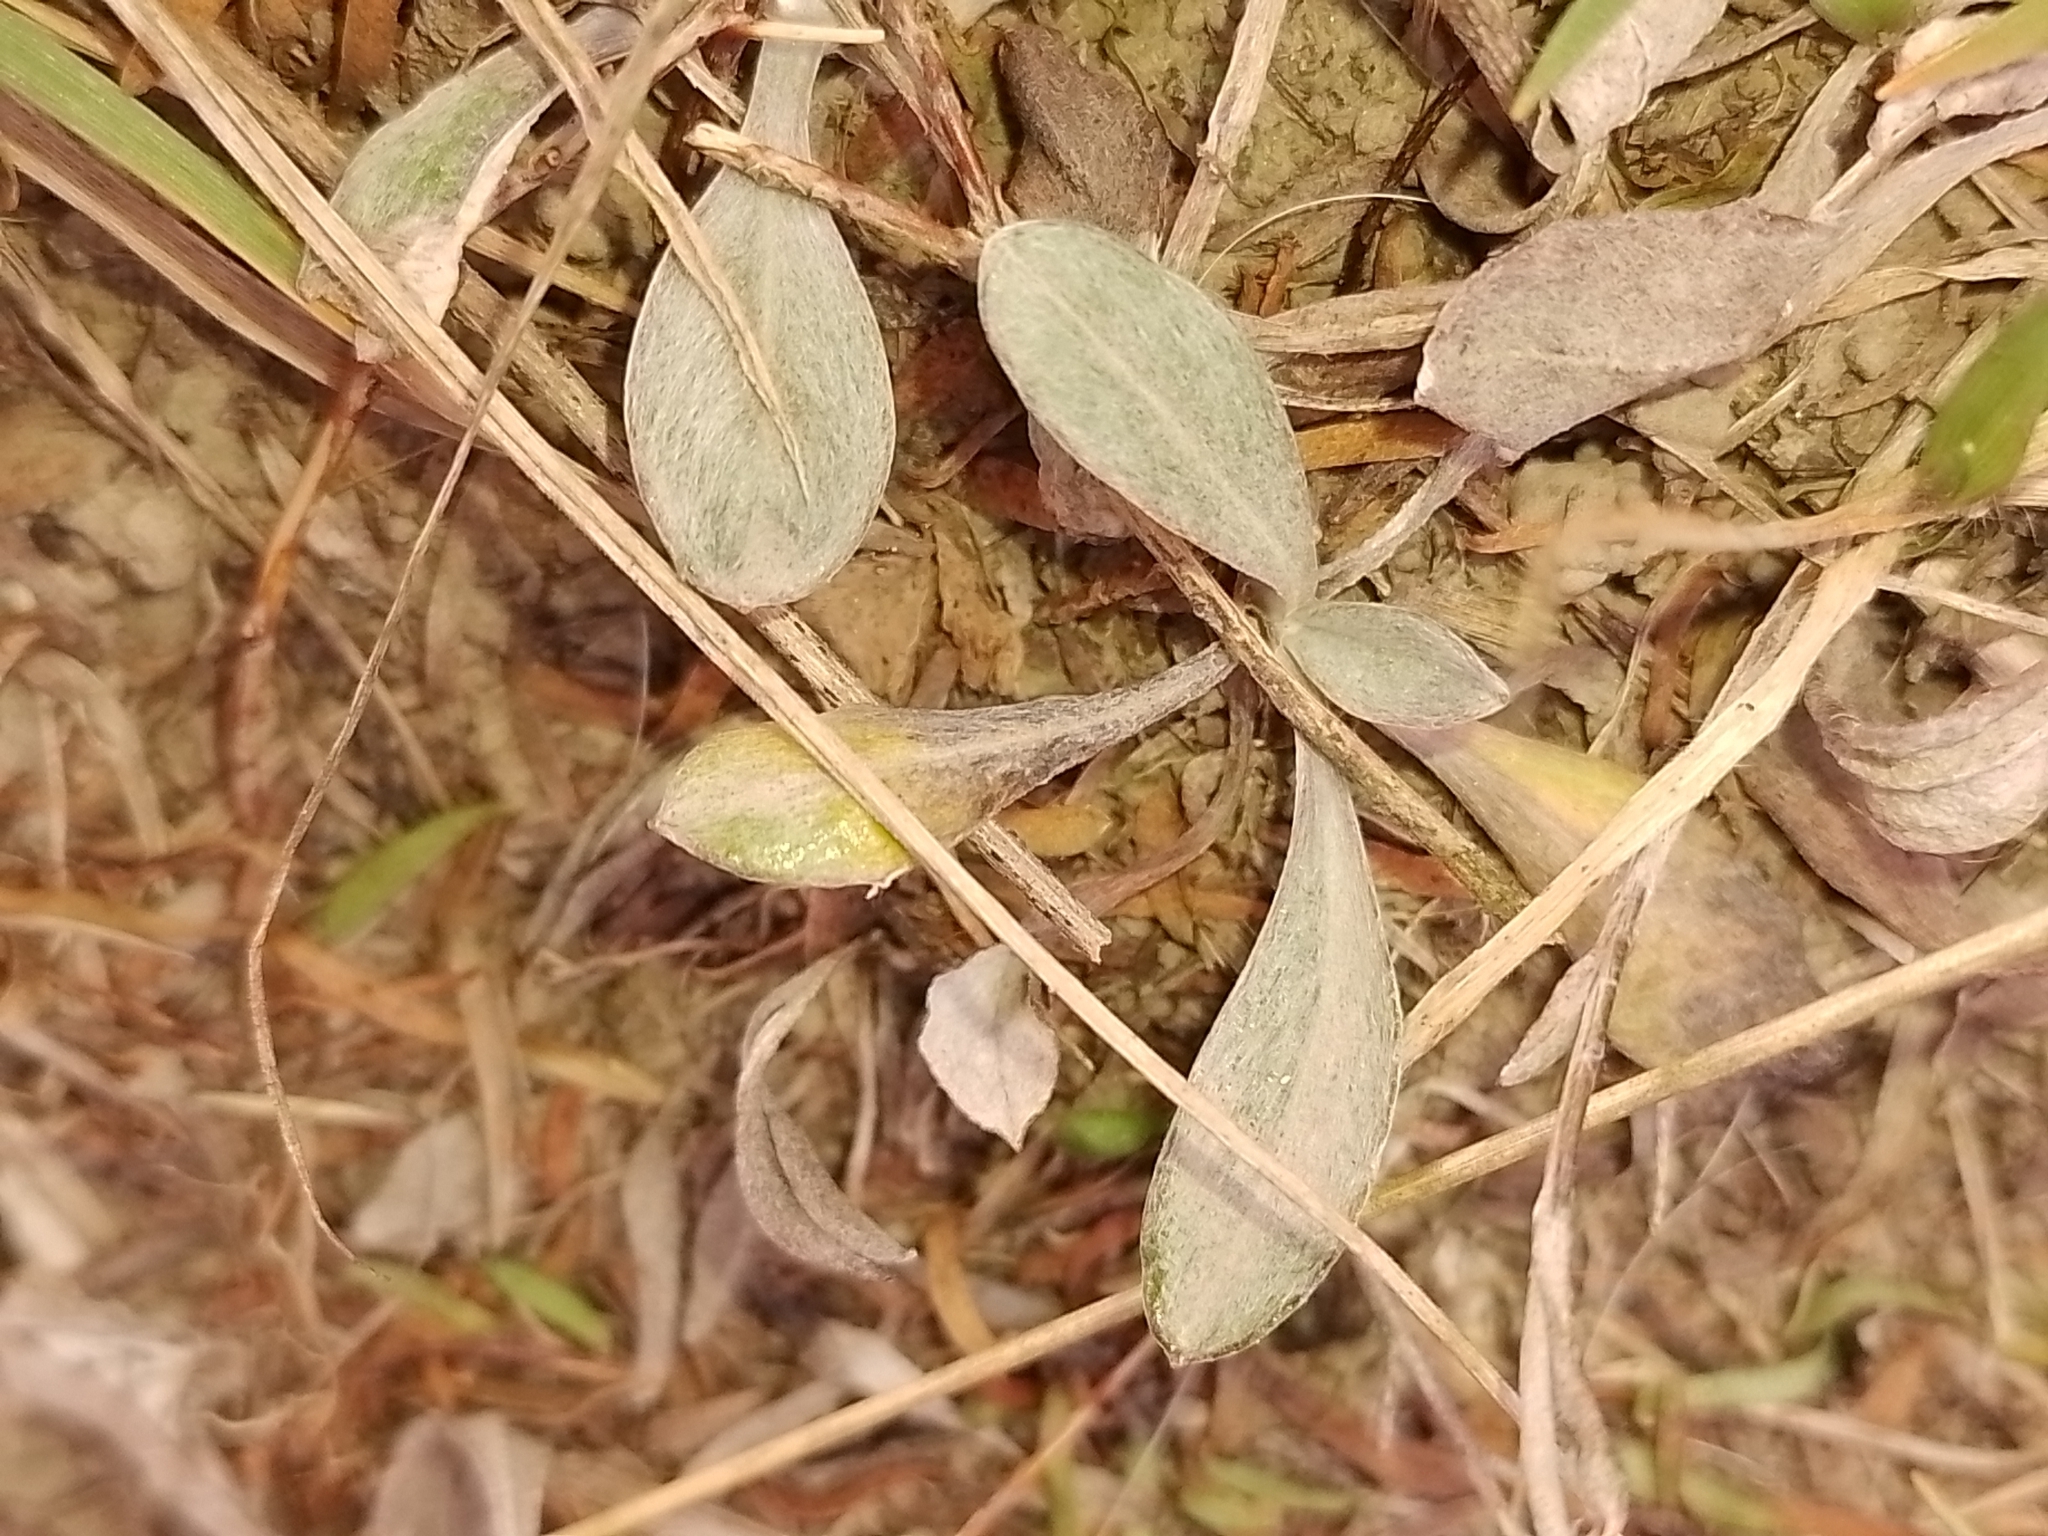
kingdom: Plantae
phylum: Tracheophyta
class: Magnoliopsida
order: Asterales
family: Asteraceae
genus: Euchiton
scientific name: Euchiton audax
